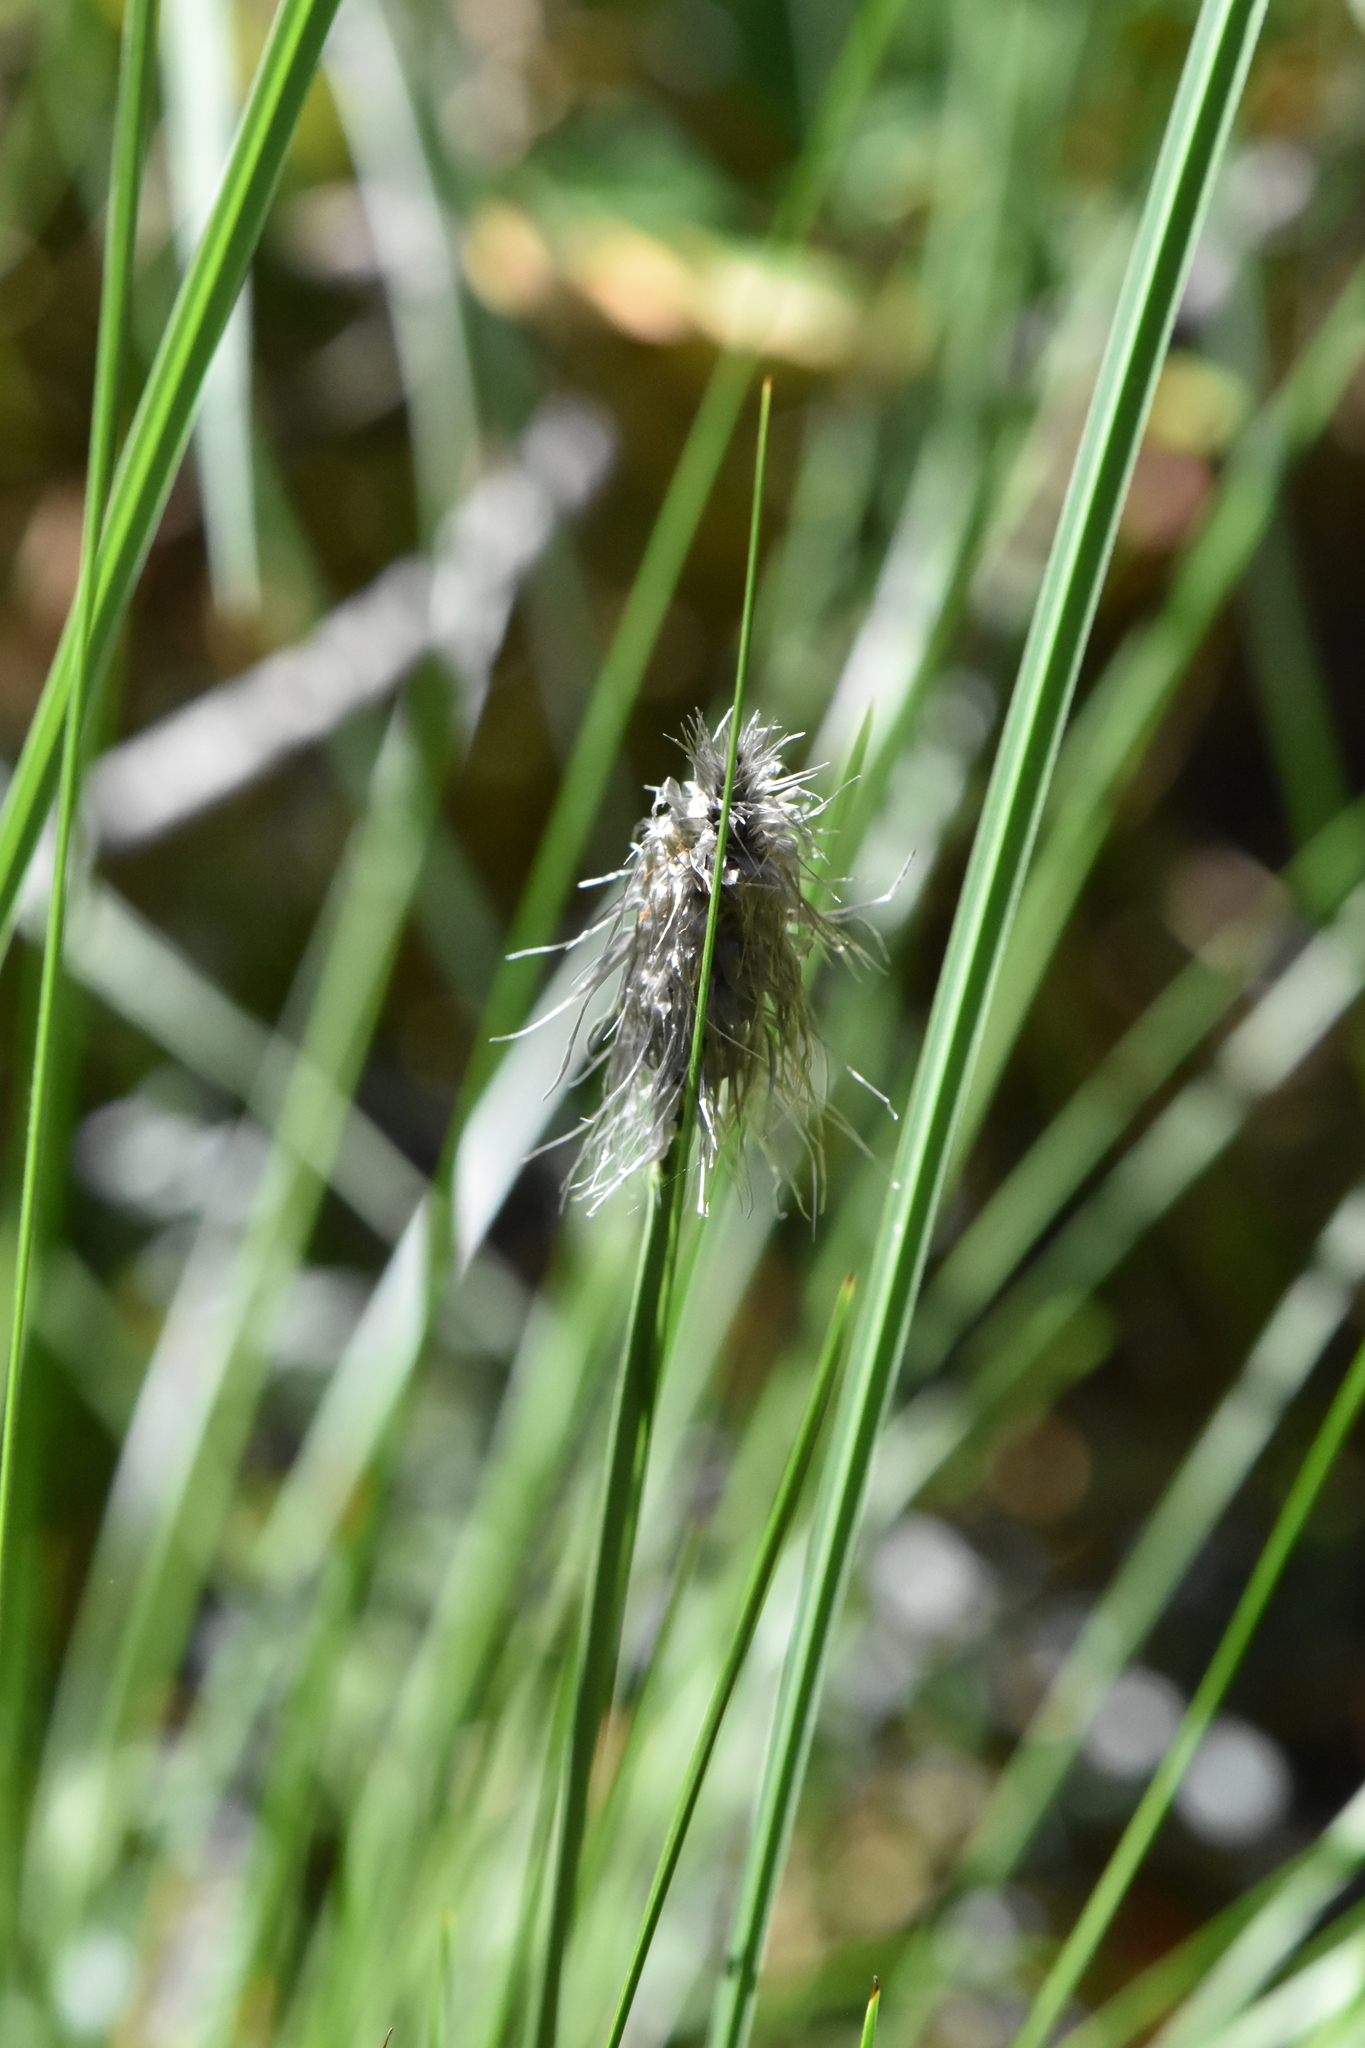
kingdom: Plantae
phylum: Tracheophyta
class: Liliopsida
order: Poales
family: Cyperaceae
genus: Eriophorum
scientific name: Eriophorum vaginatum
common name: Hare's-tail cottongrass
